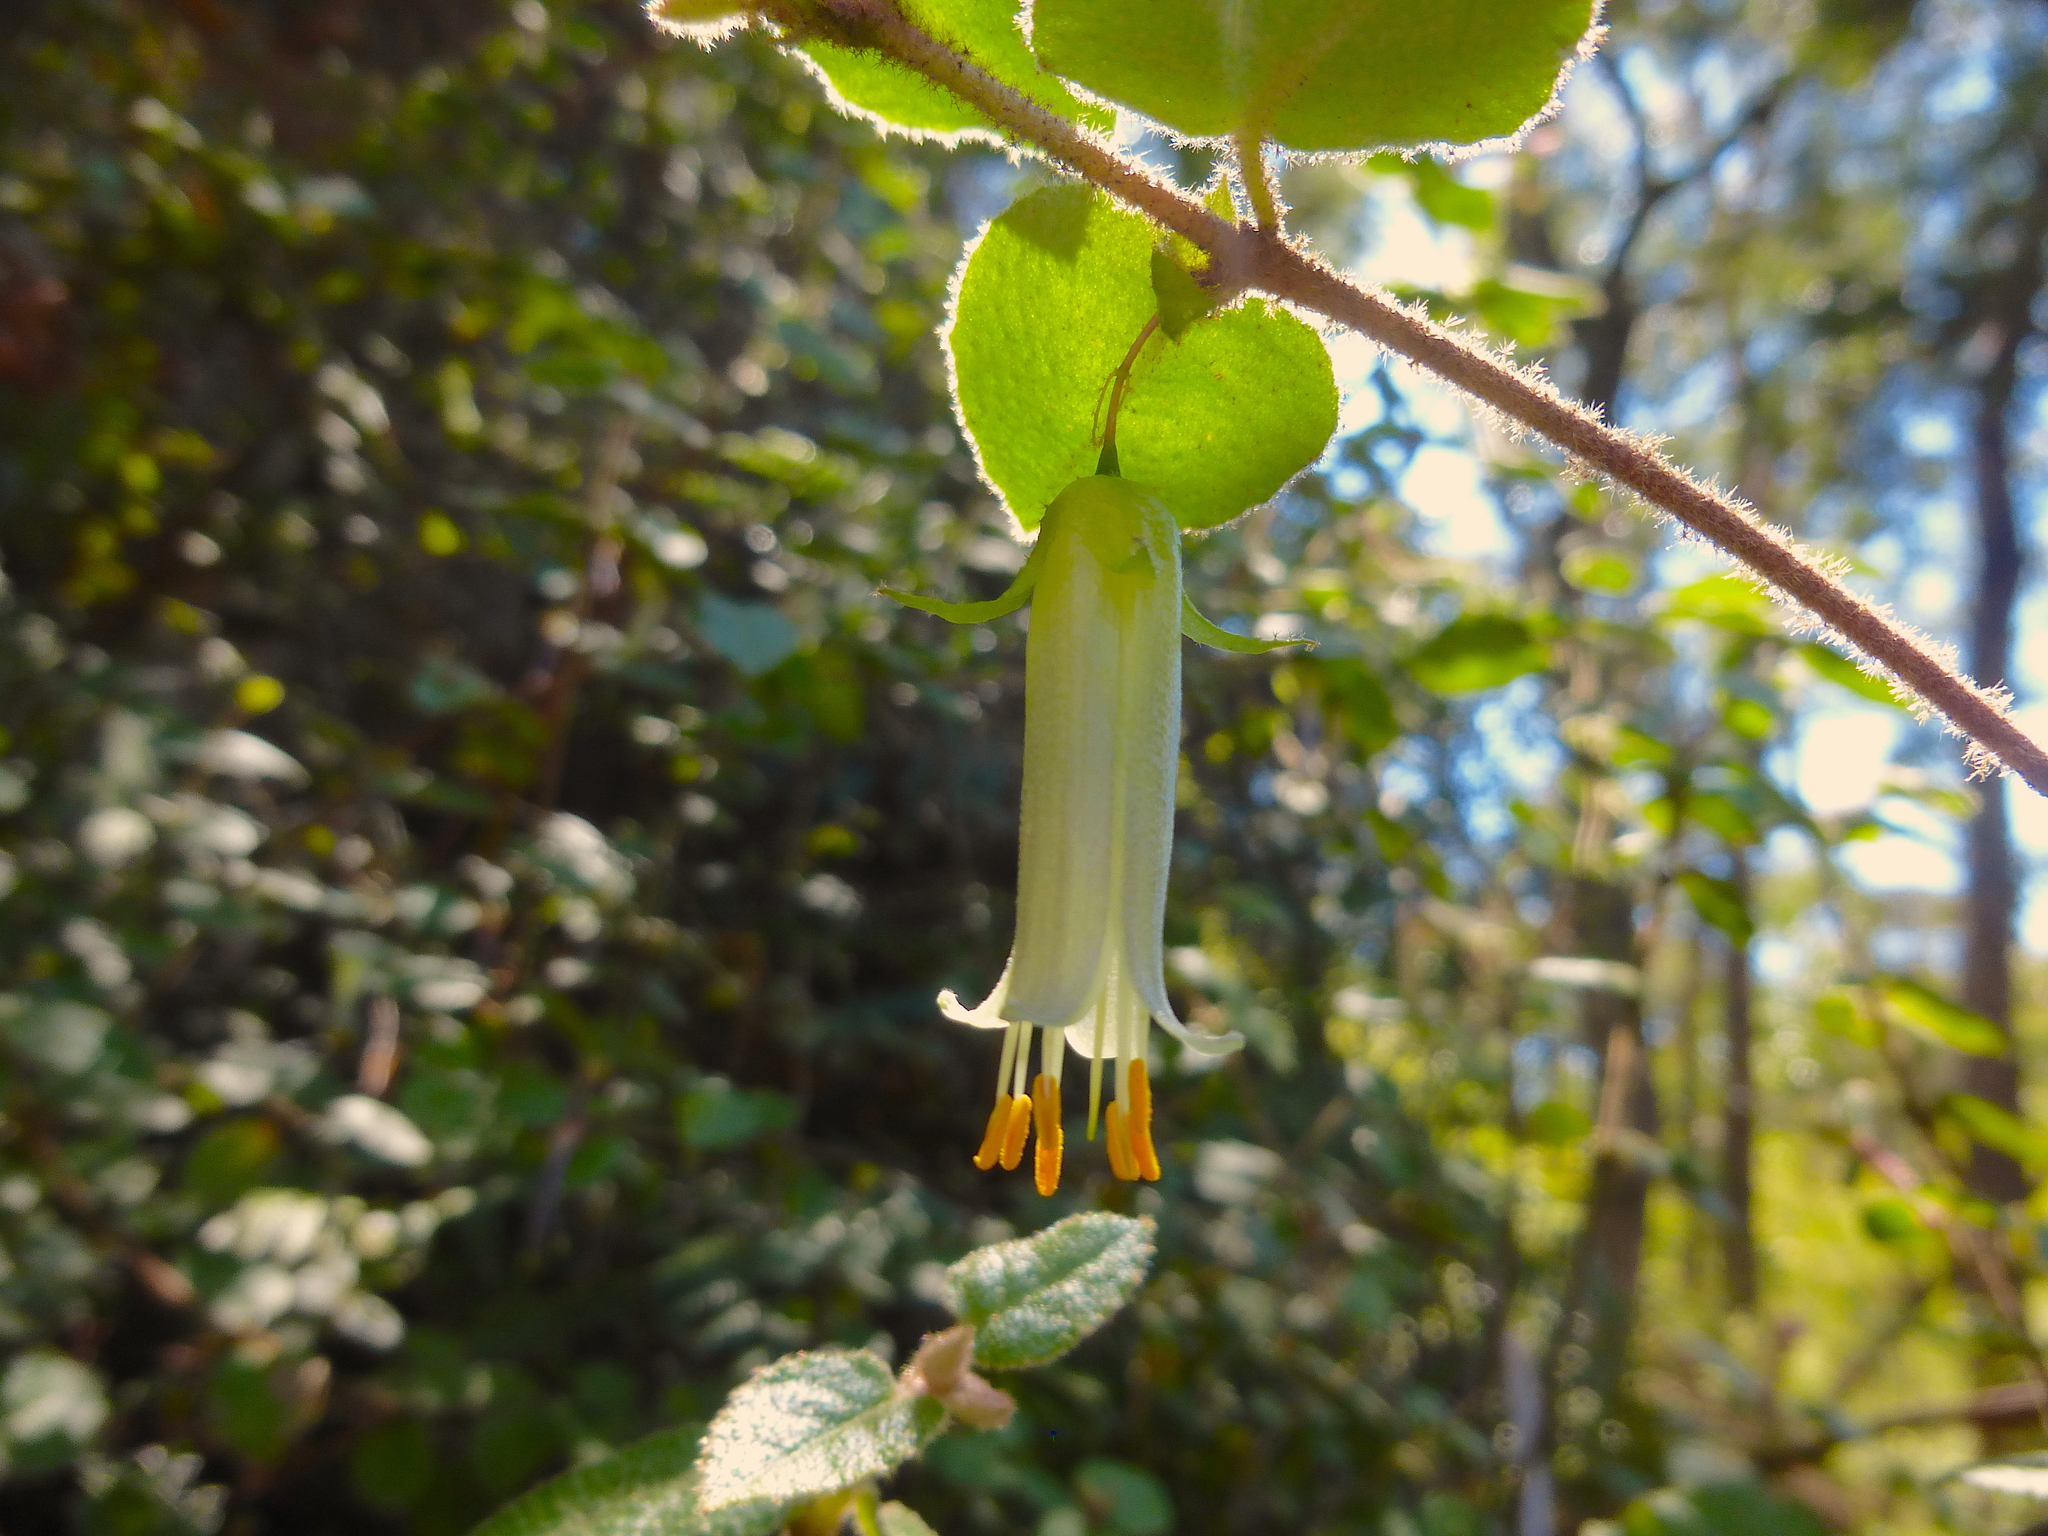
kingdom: Plantae
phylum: Tracheophyta
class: Magnoliopsida
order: Sapindales
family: Rutaceae
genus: Correa
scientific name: Correa aemula
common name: Hairy correa
